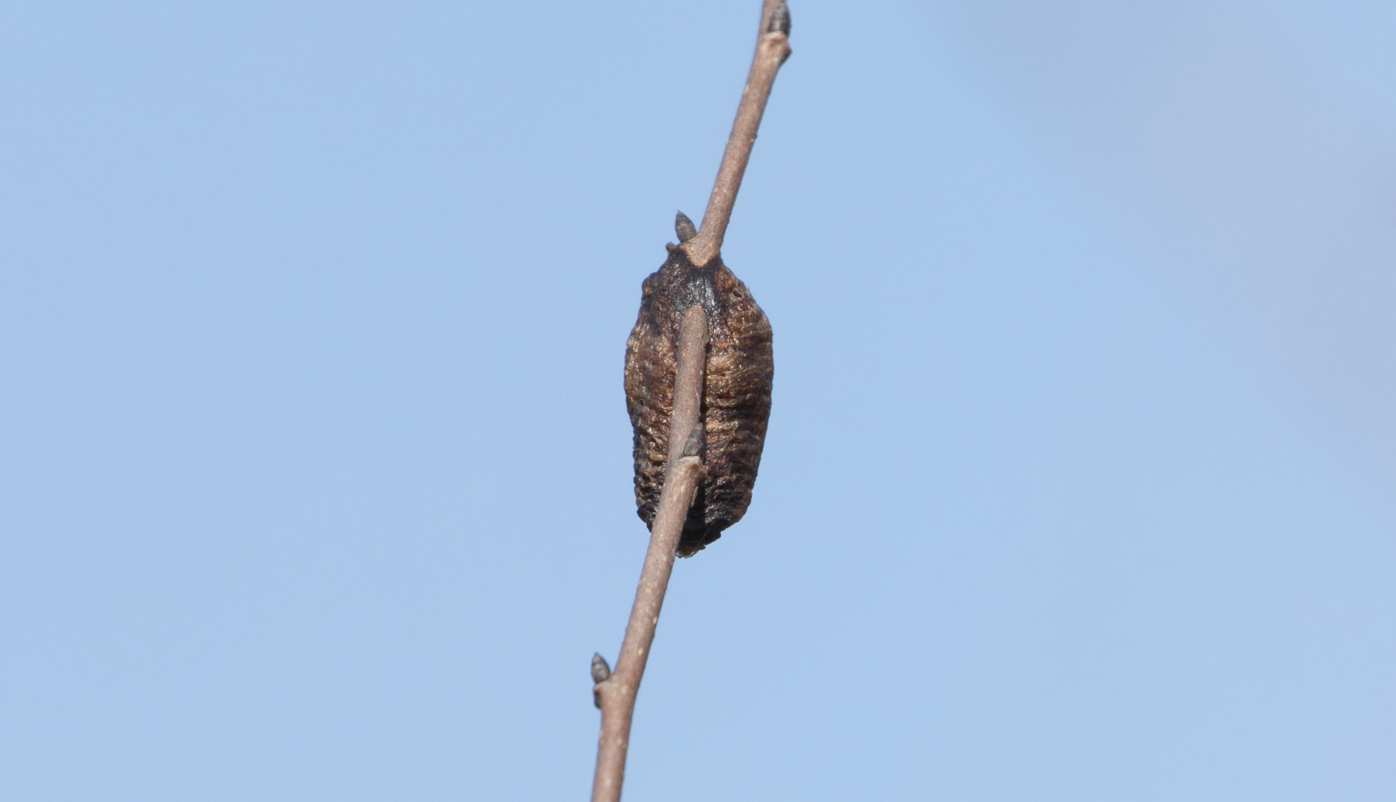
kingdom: Animalia
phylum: Arthropoda
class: Insecta
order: Mantodea
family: Mantidae
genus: Hierodula
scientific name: Hierodula transcaucasica
